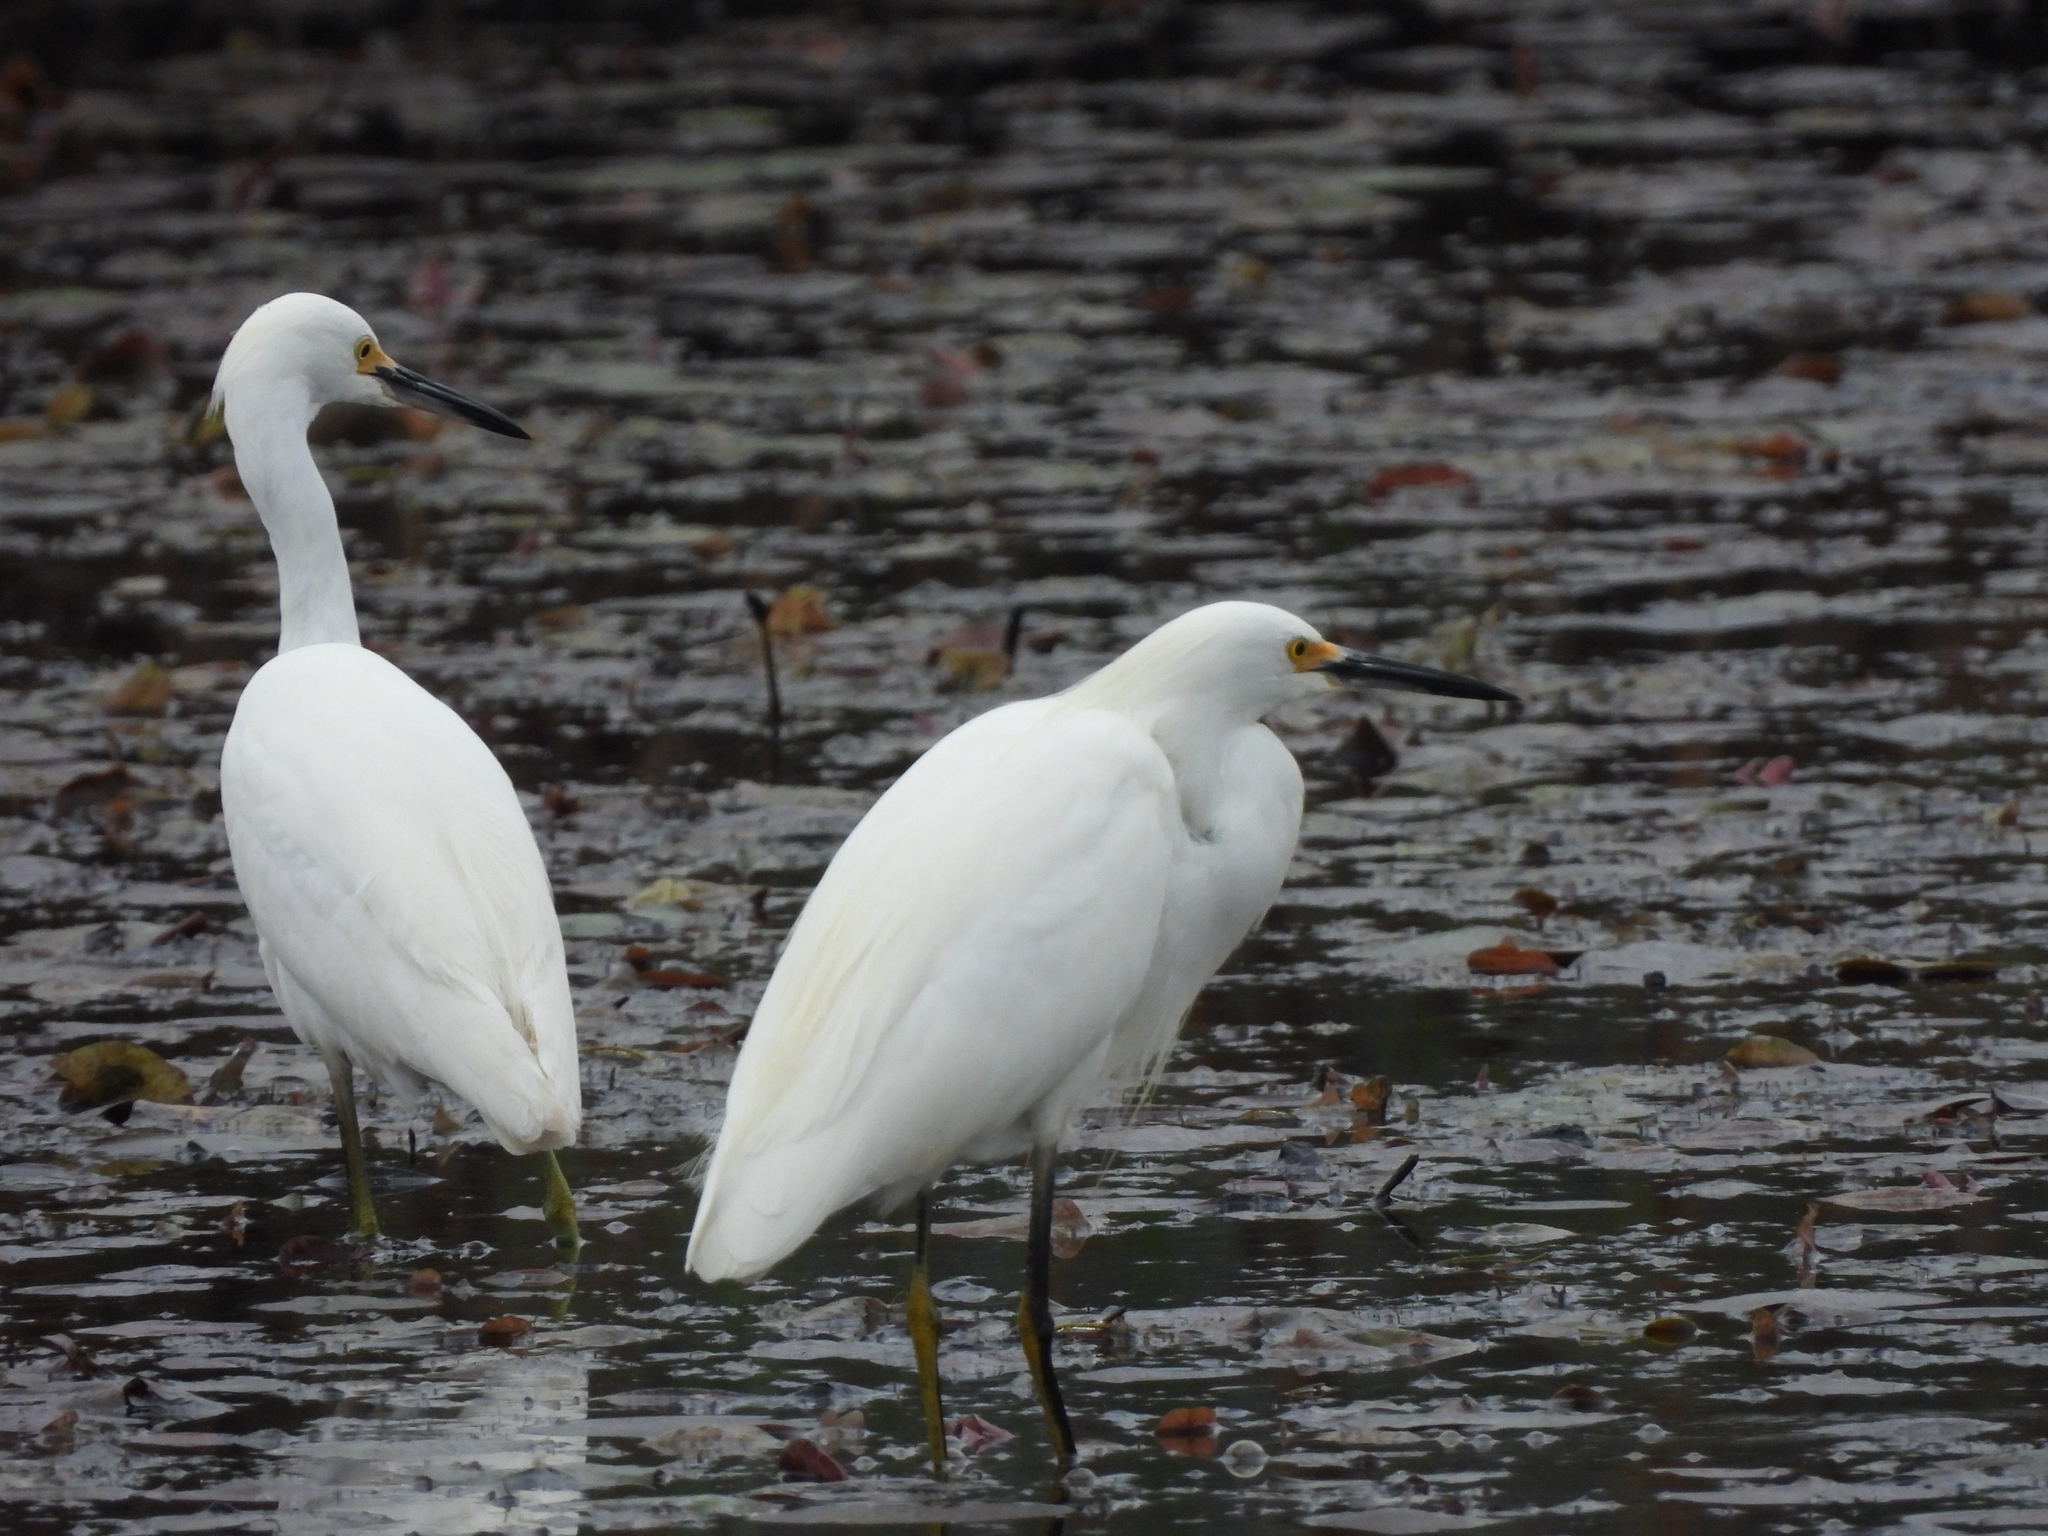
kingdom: Animalia
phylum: Chordata
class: Aves
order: Pelecaniformes
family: Ardeidae
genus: Egretta
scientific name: Egretta thula
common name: Snowy egret
